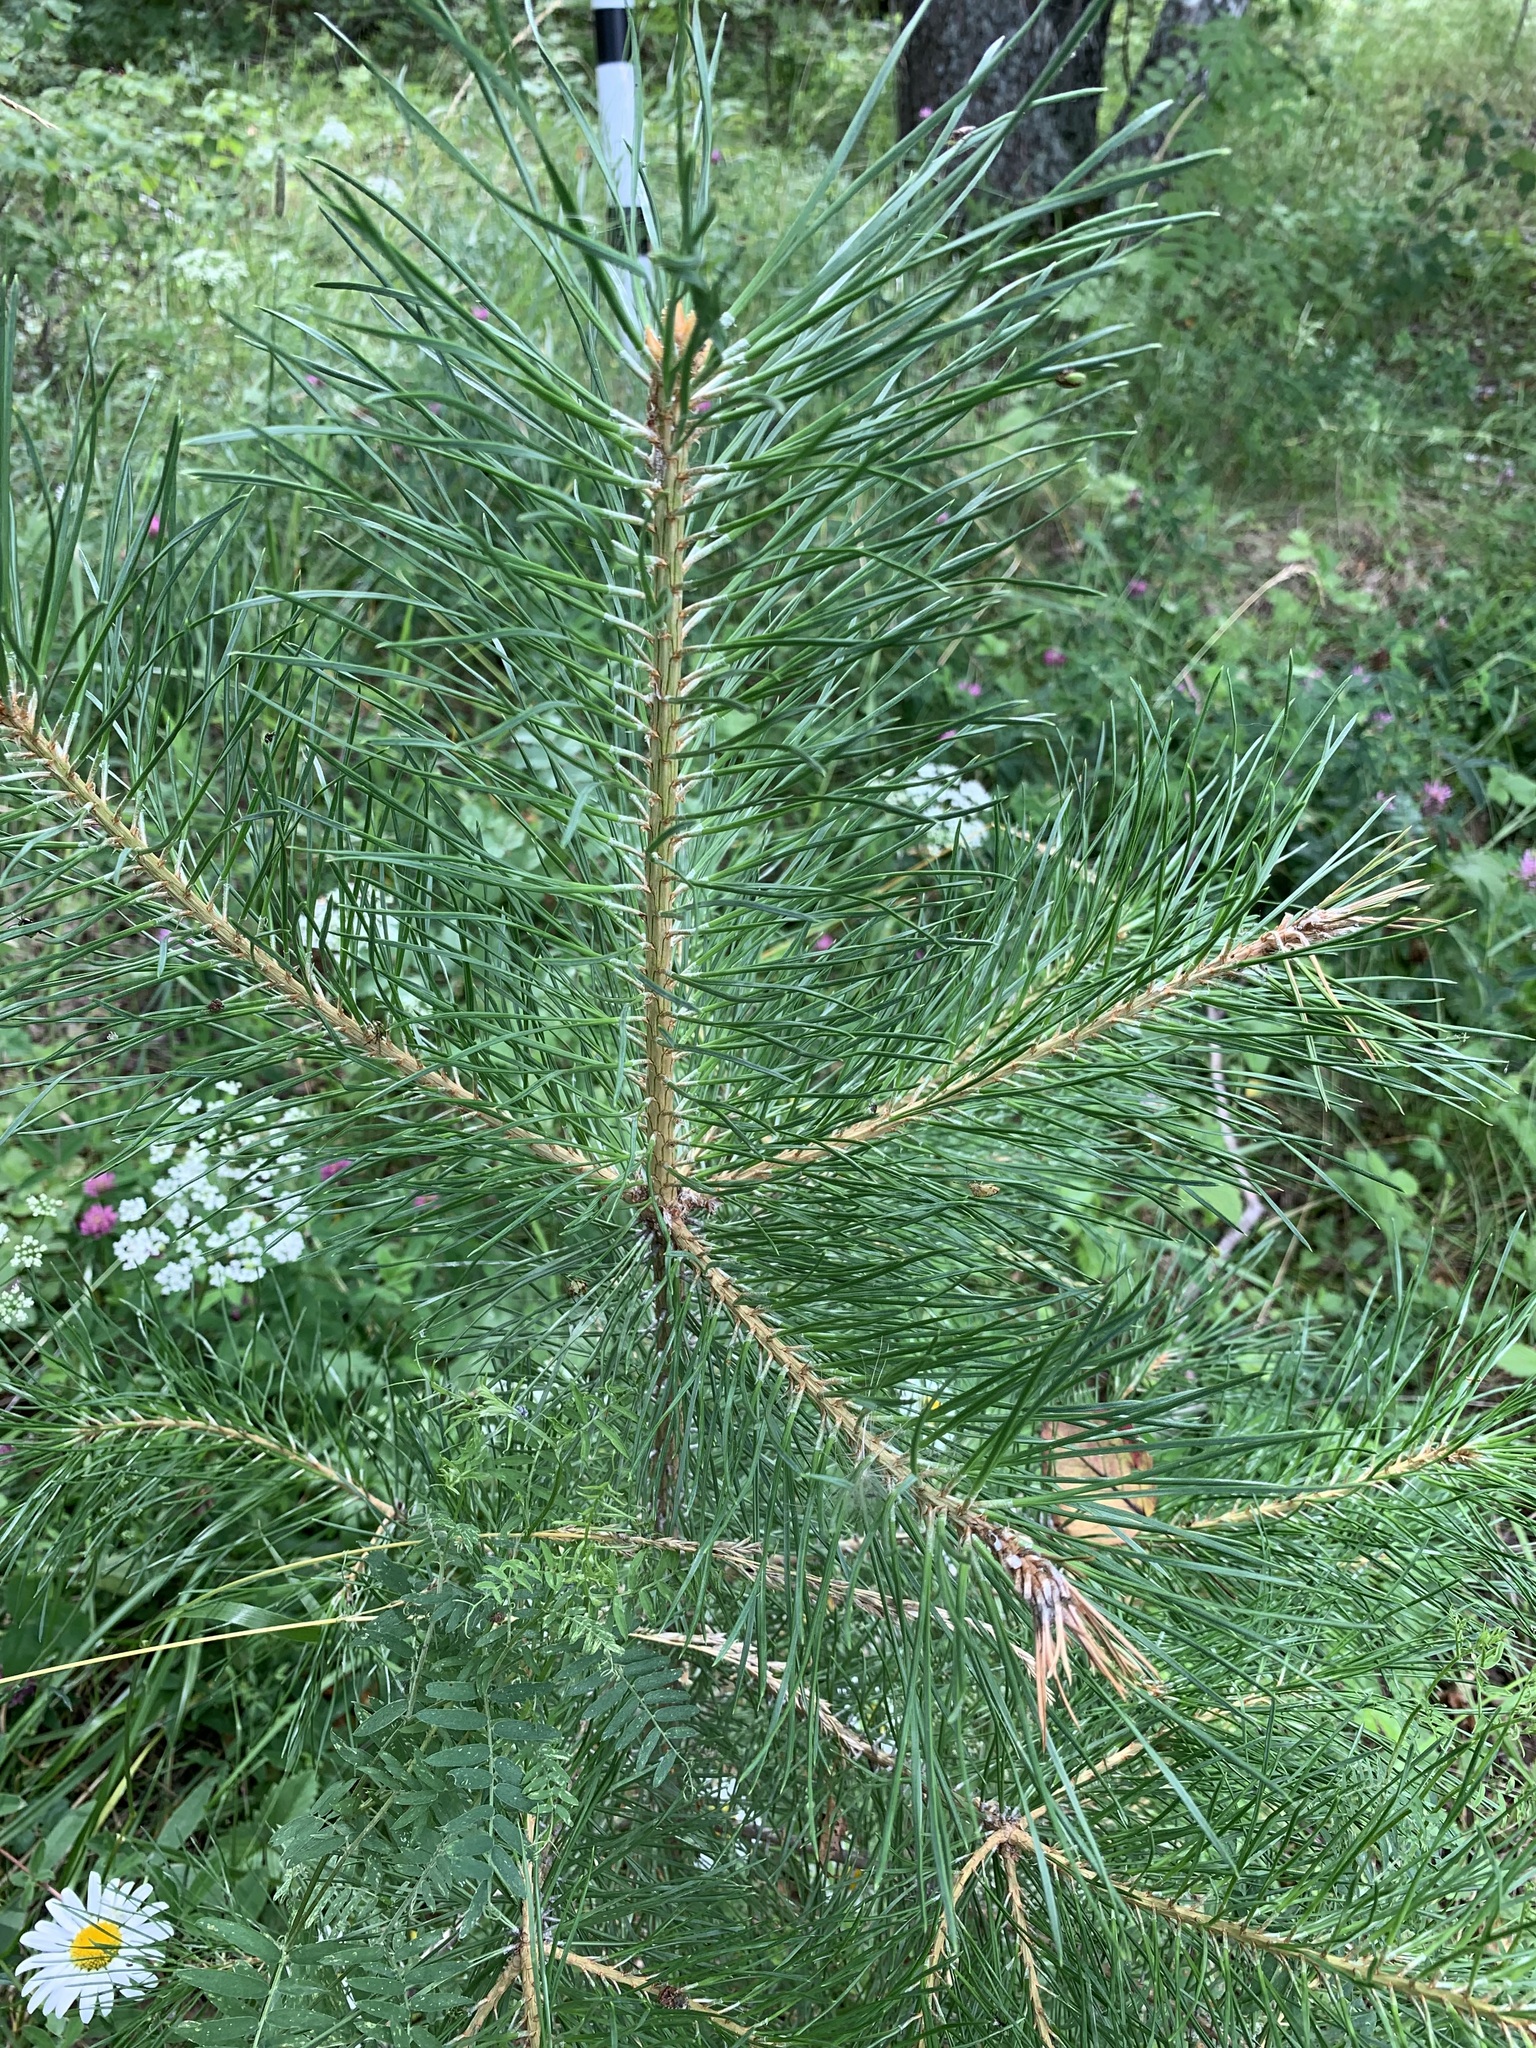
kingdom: Plantae
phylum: Tracheophyta
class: Pinopsida
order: Pinales
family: Pinaceae
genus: Pinus
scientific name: Pinus sylvestris
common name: Scots pine
